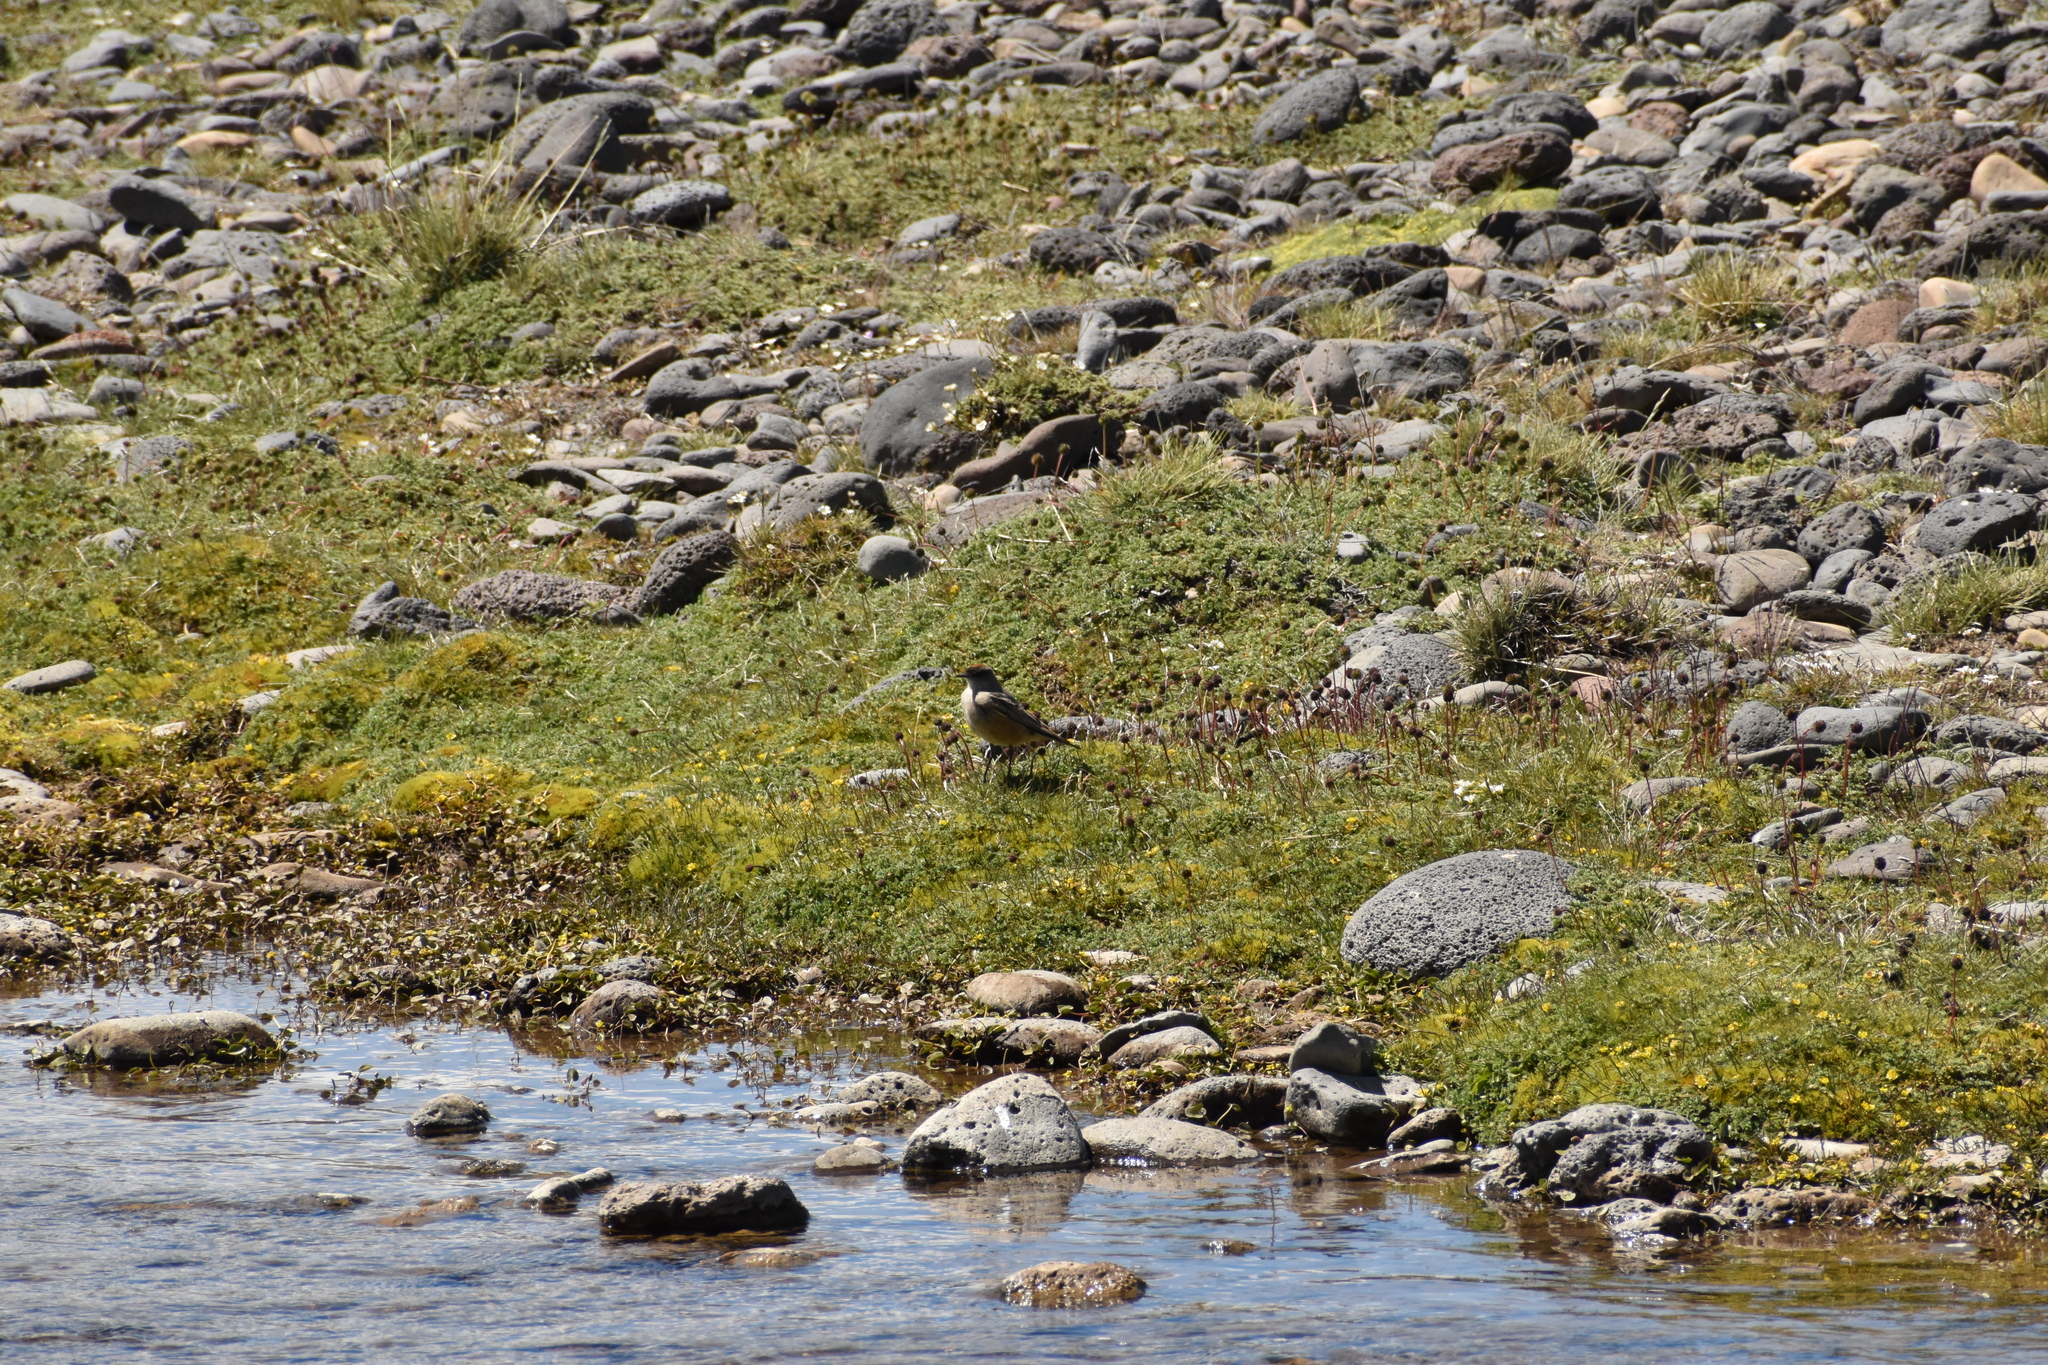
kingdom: Animalia
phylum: Chordata
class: Aves
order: Passeriformes
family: Tyrannidae
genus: Muscisaxicola
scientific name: Muscisaxicola capistratus
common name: Cinnamon-bellied ground tyrant
